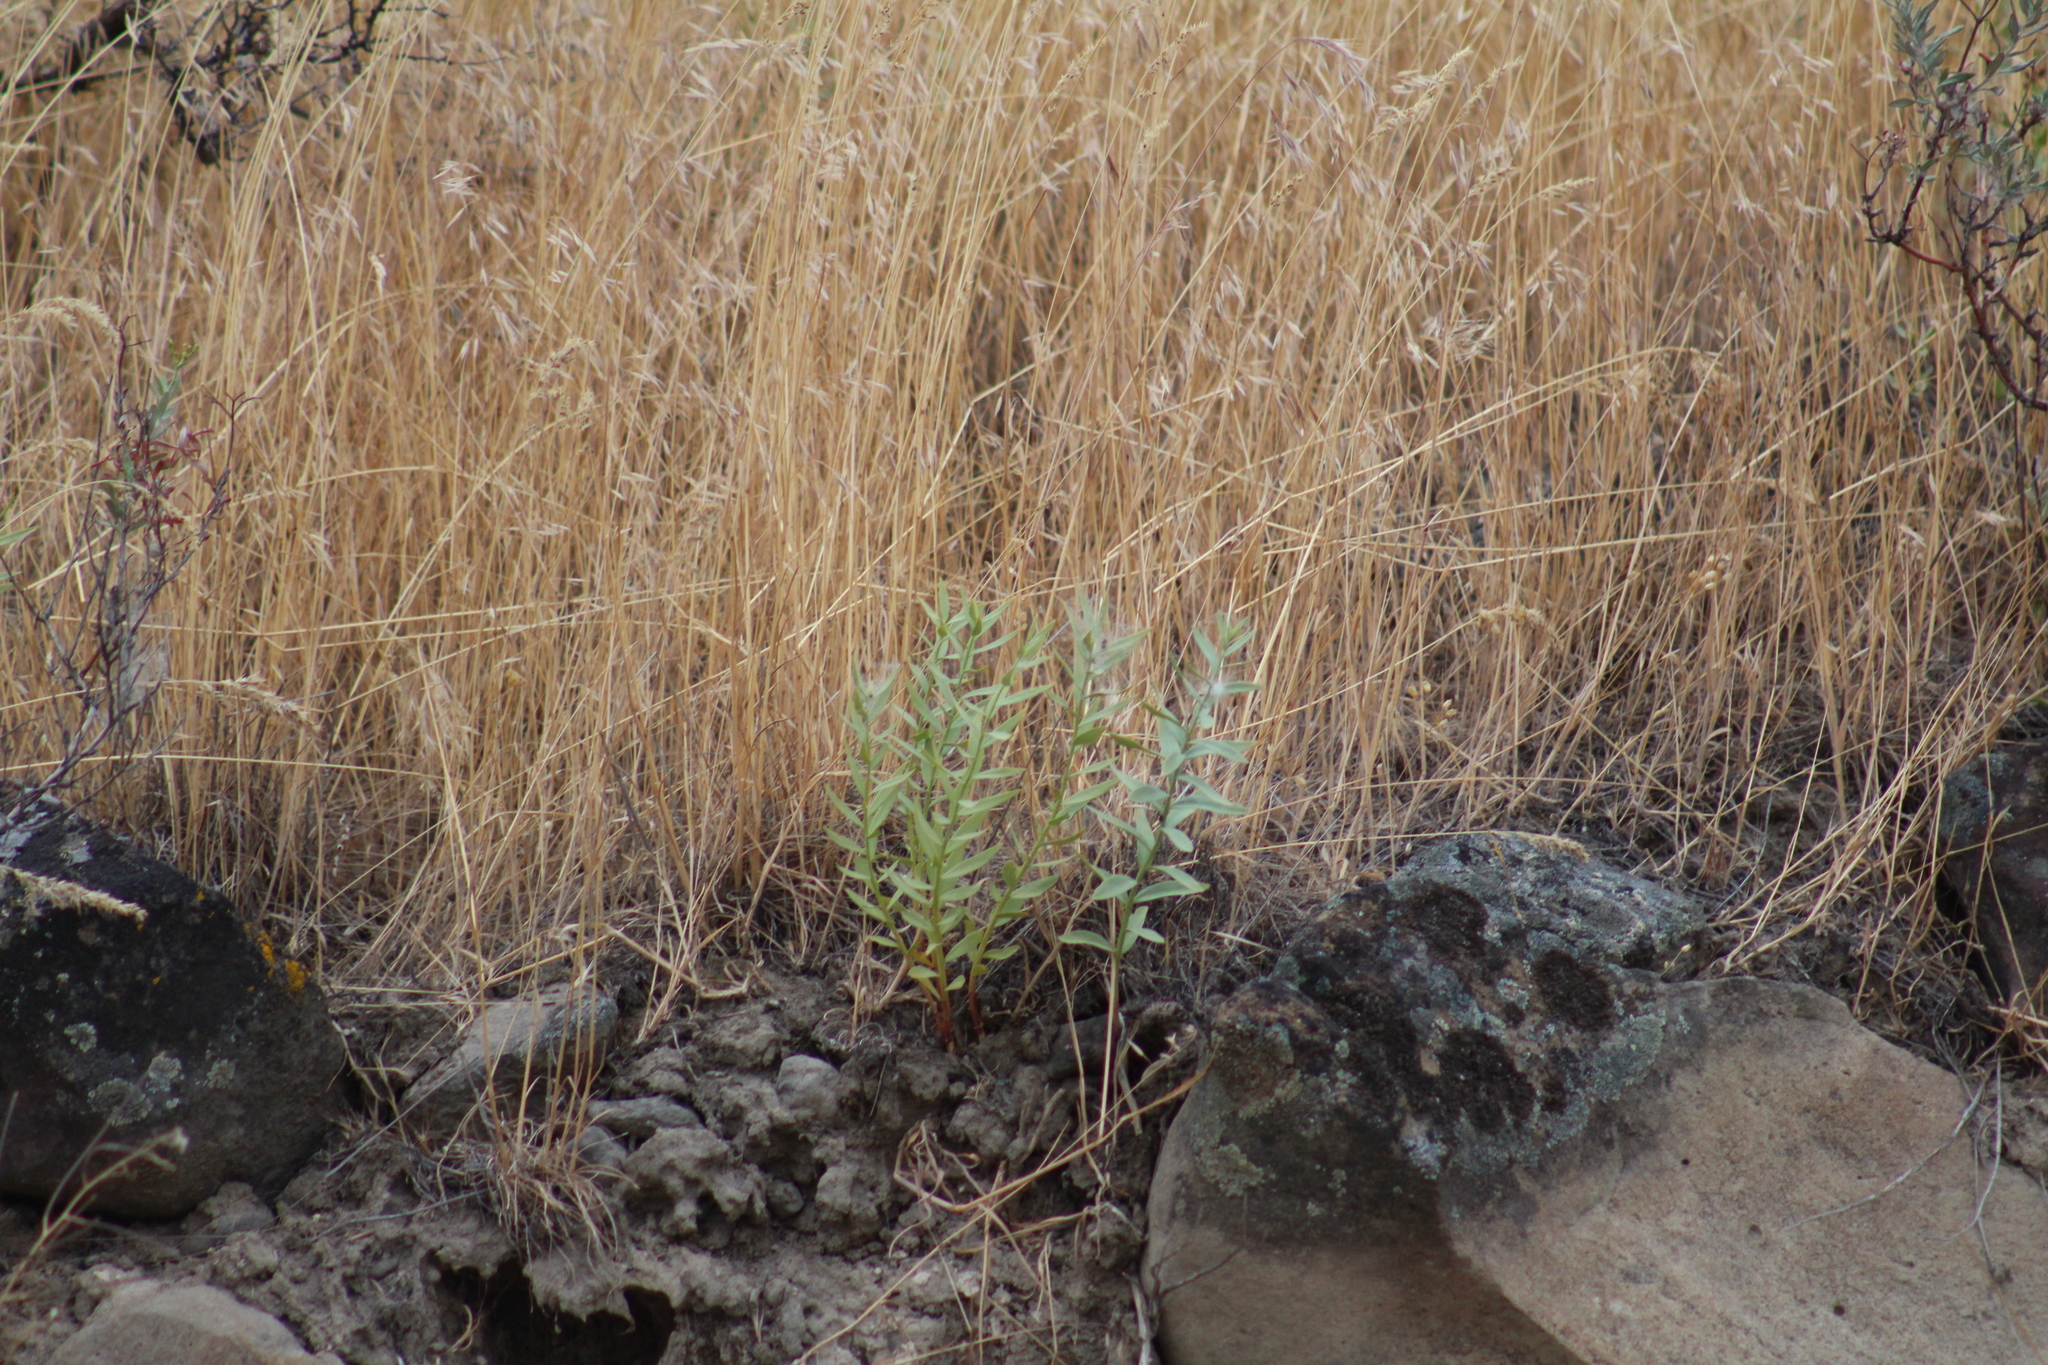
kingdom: Plantae
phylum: Tracheophyta
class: Magnoliopsida
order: Santalales
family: Comandraceae
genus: Comandra
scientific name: Comandra umbellata
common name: Bastard toadflax
